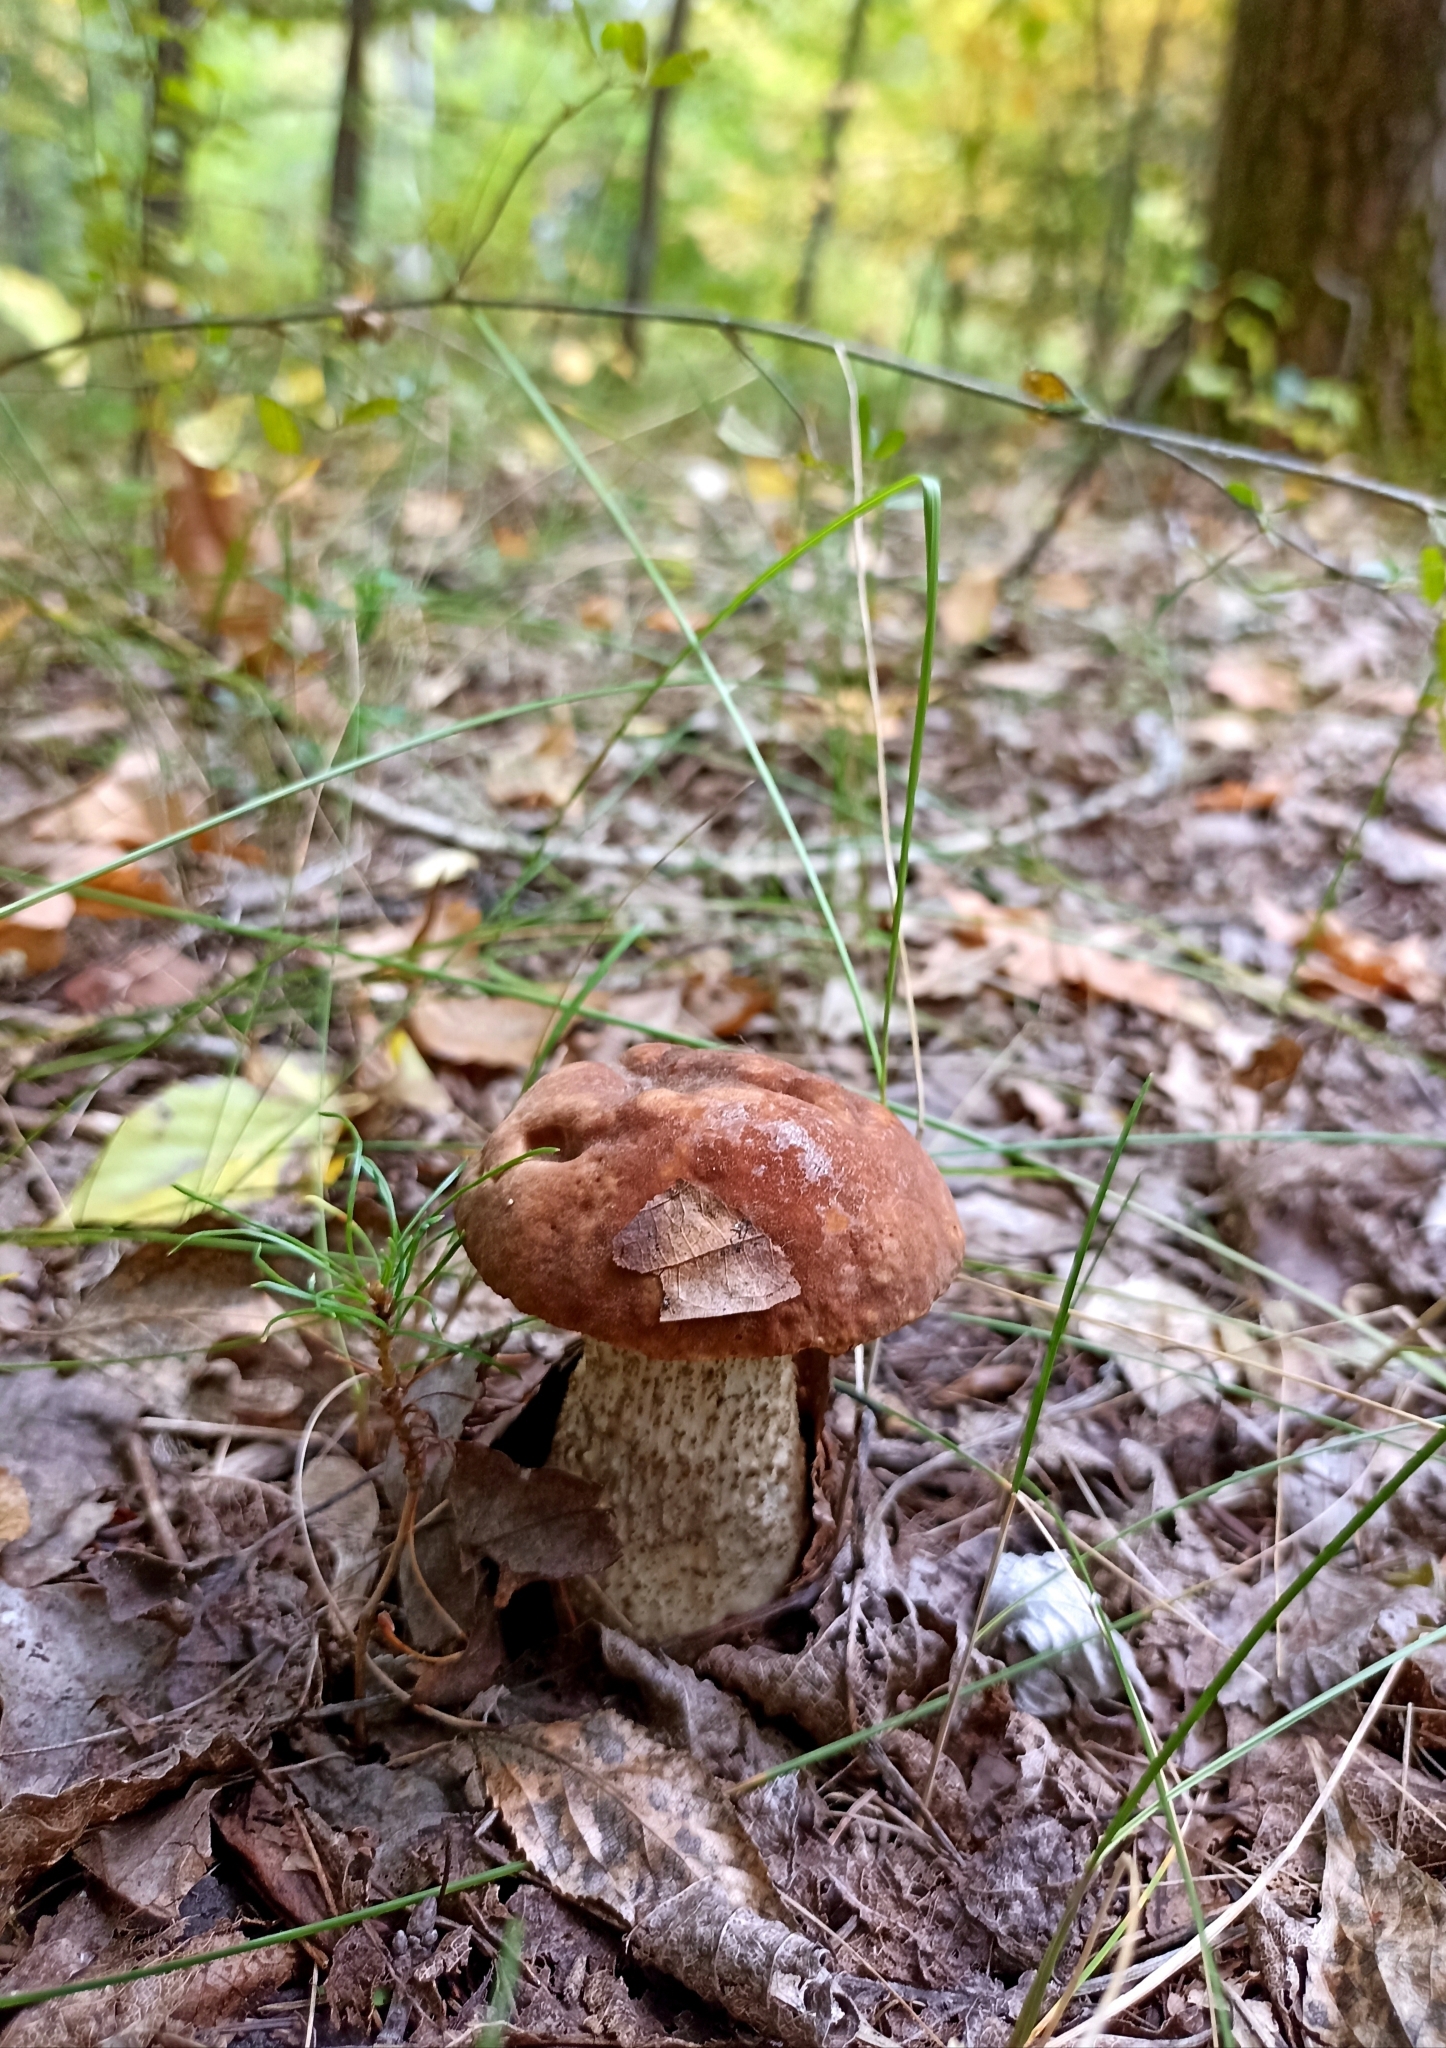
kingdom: Fungi
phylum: Basidiomycota
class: Agaricomycetes
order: Boletales
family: Boletaceae
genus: Leccinum
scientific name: Leccinum vulpinum
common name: Foxy bolete
